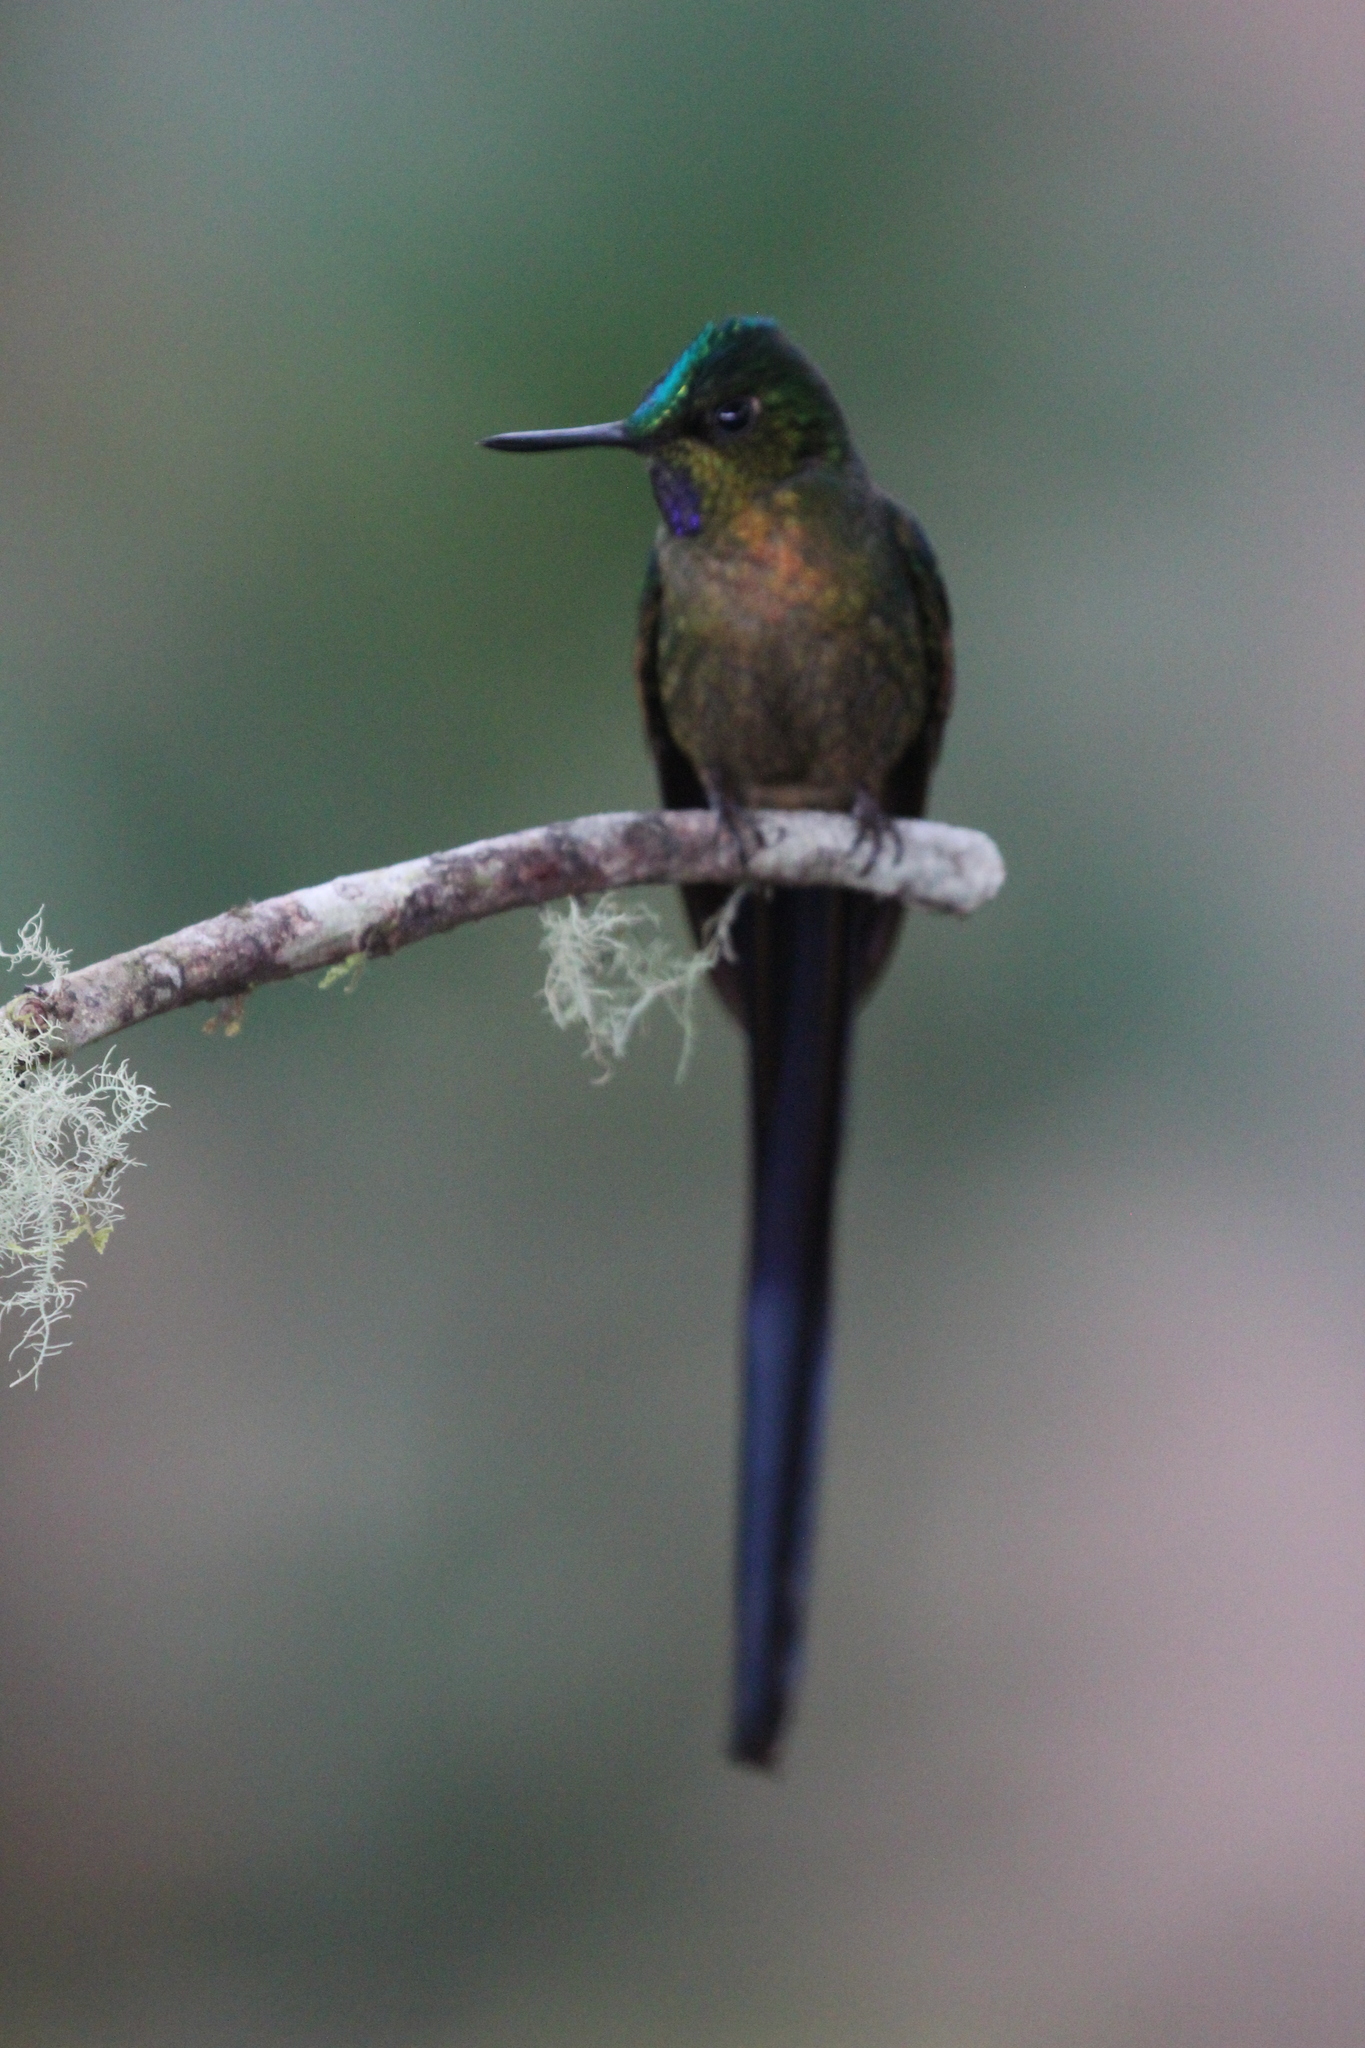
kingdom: Animalia
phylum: Chordata
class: Aves
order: Apodiformes
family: Trochilidae
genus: Aglaiocercus
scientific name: Aglaiocercus coelestis
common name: Violet-tailed sylph
